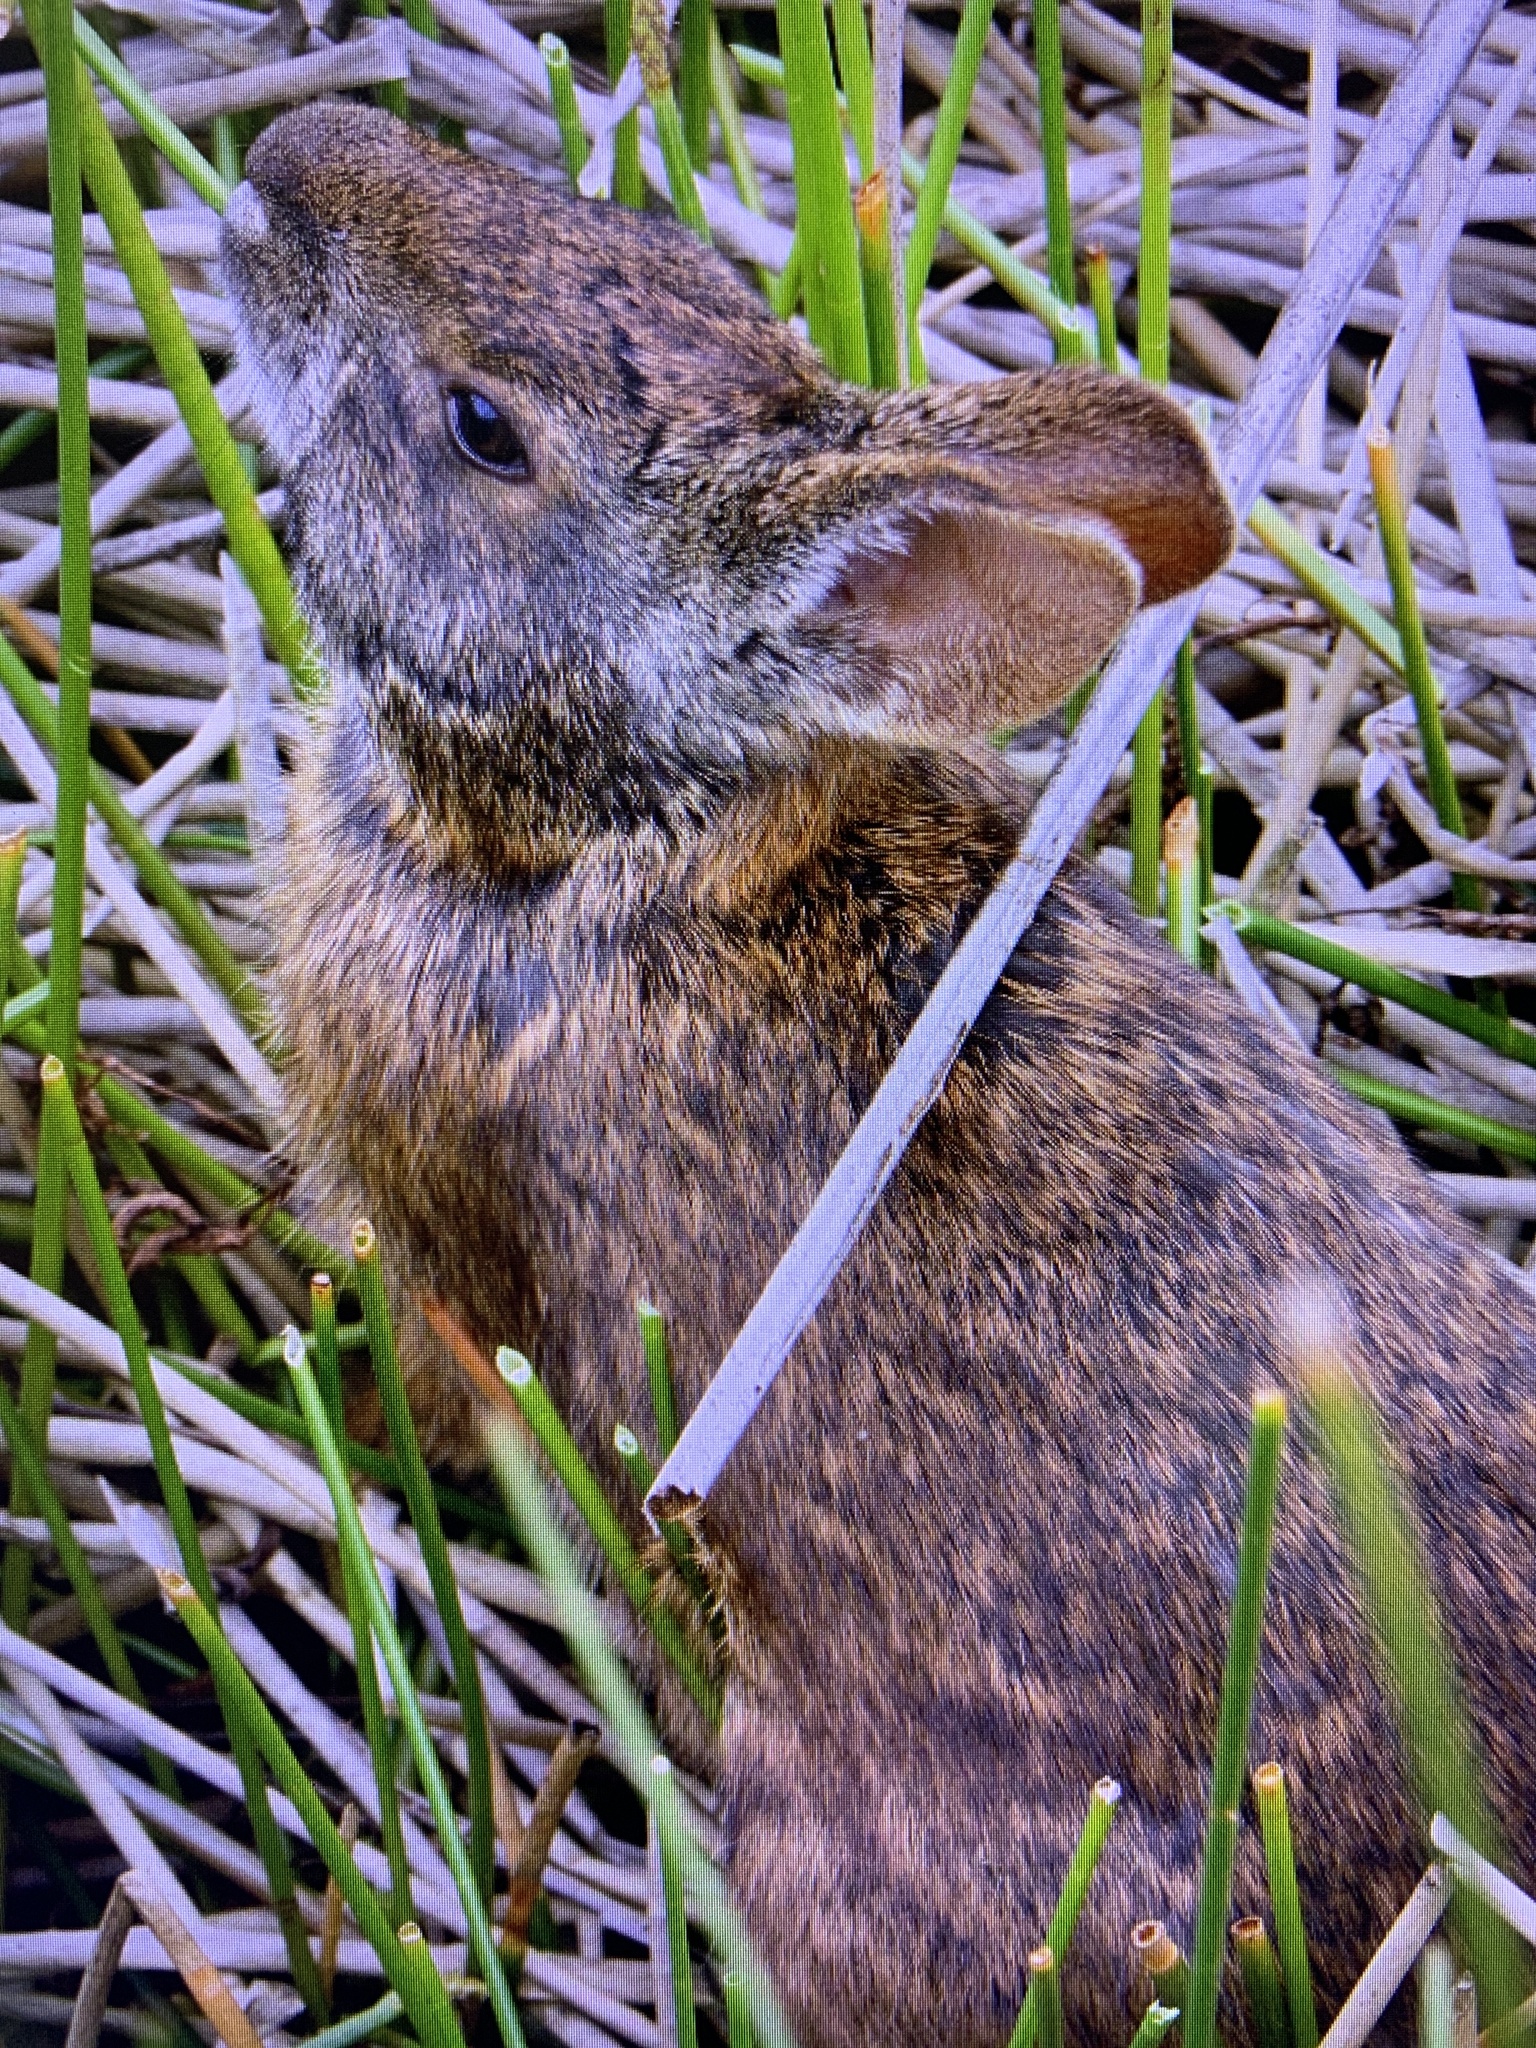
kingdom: Animalia
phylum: Chordata
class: Mammalia
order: Lagomorpha
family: Leporidae
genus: Sylvilagus
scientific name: Sylvilagus palustris
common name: Marsh rabbit
